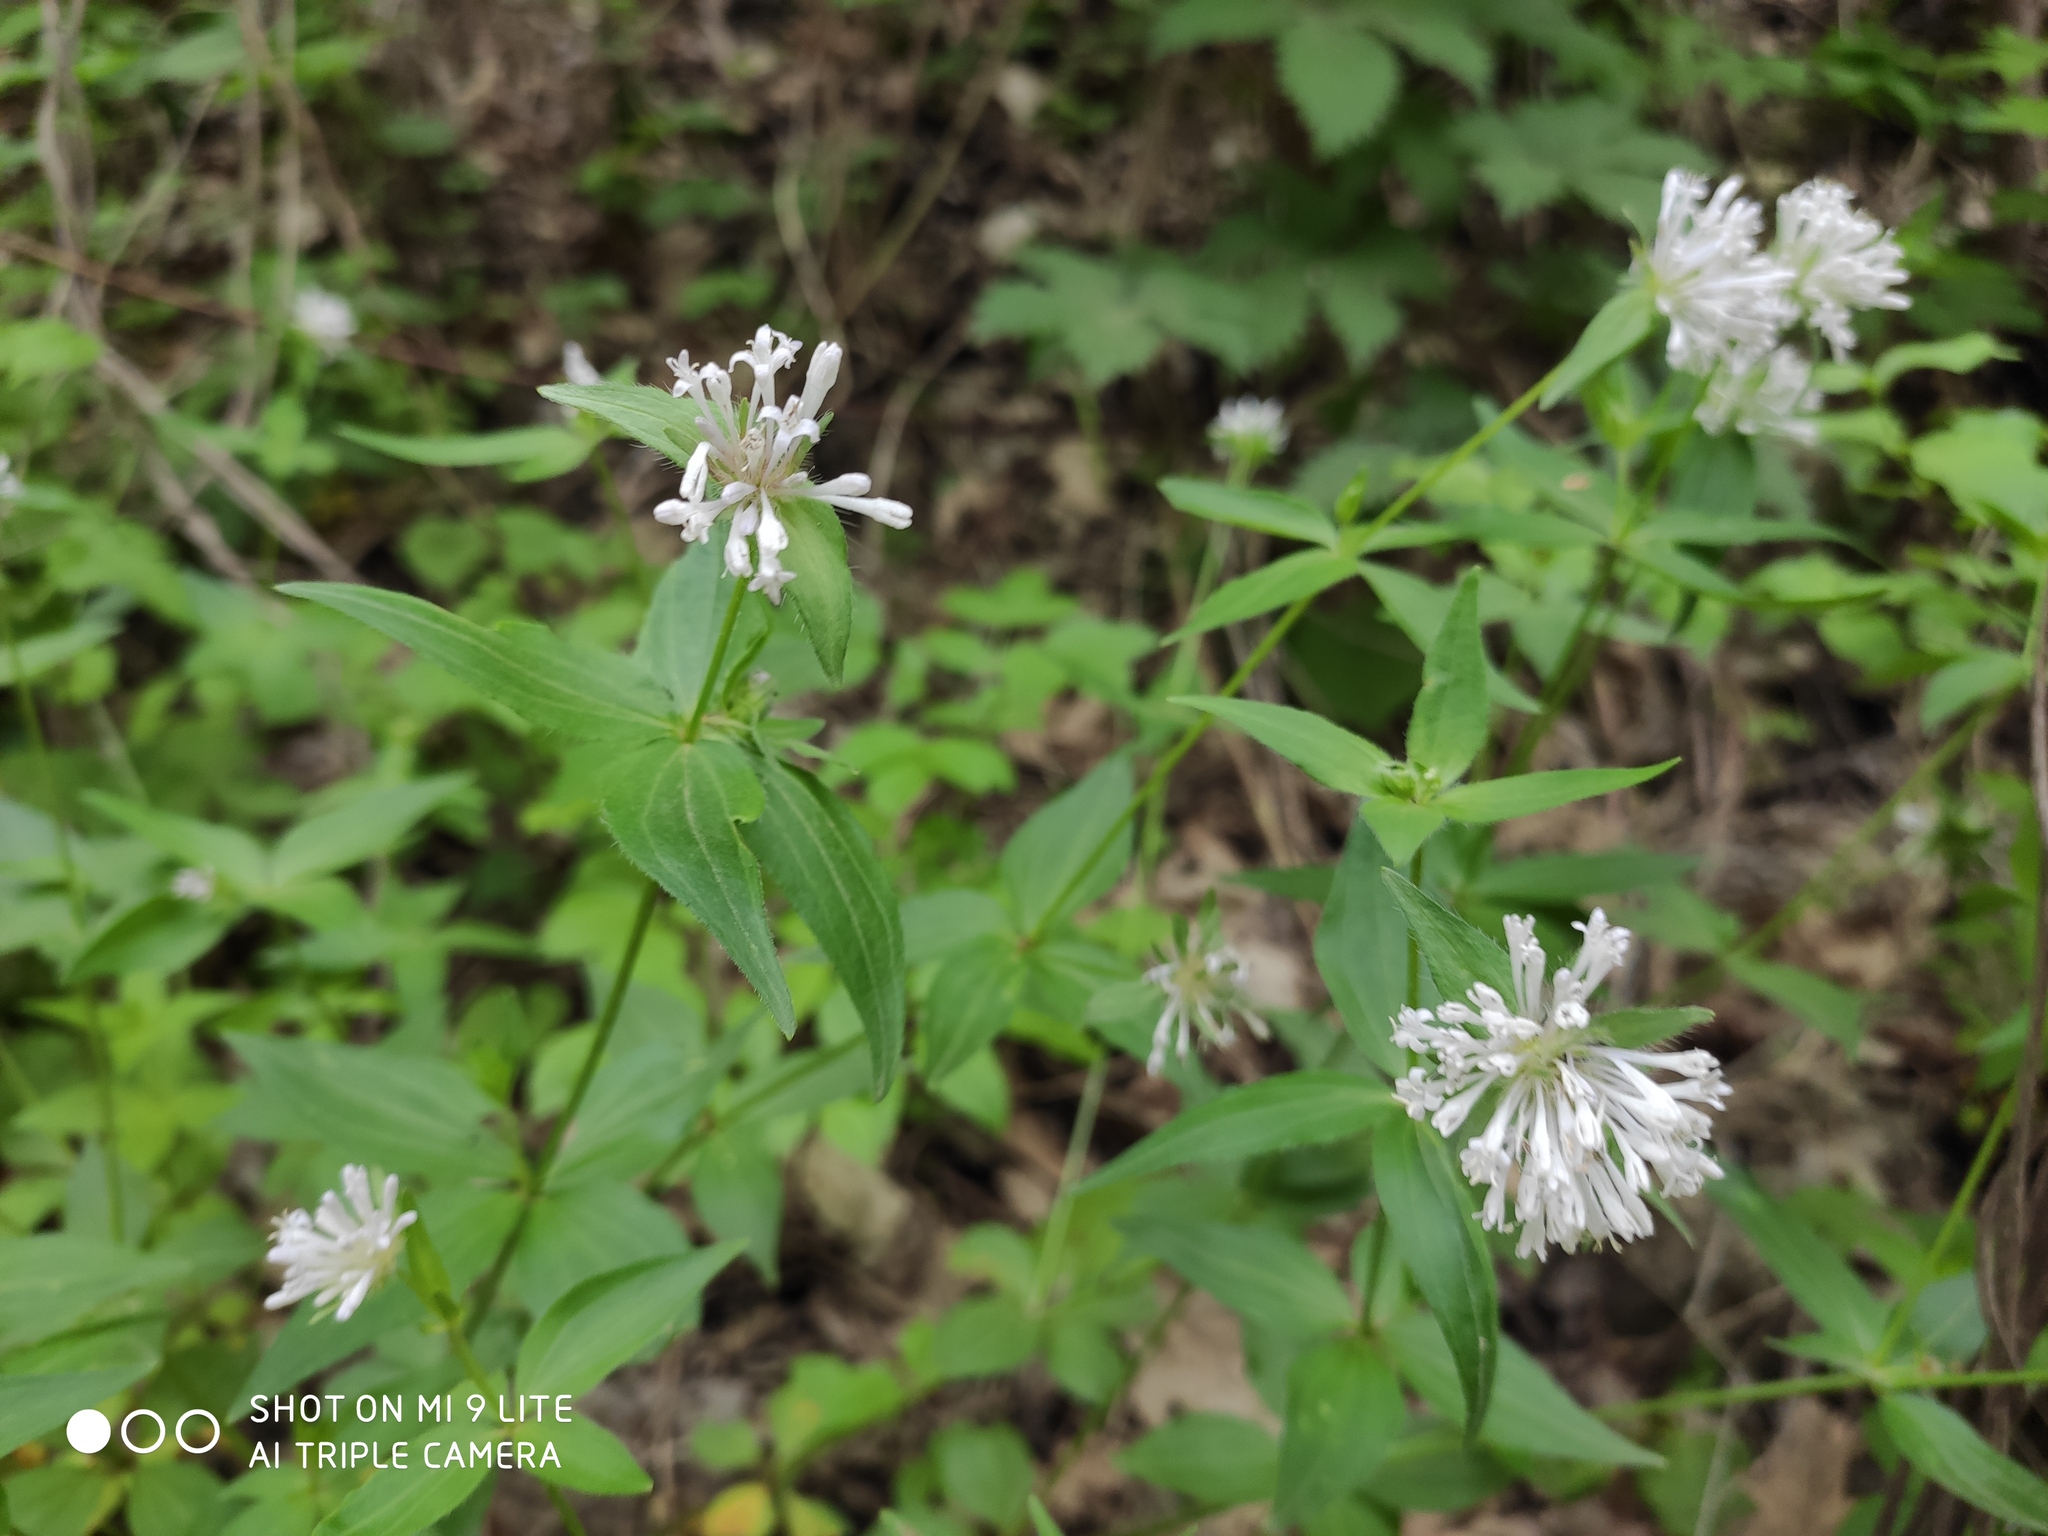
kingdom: Plantae
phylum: Tracheophyta
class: Magnoliopsida
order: Gentianales
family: Rubiaceae
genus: Asperula
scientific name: Asperula taurina
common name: Pink woodruff
